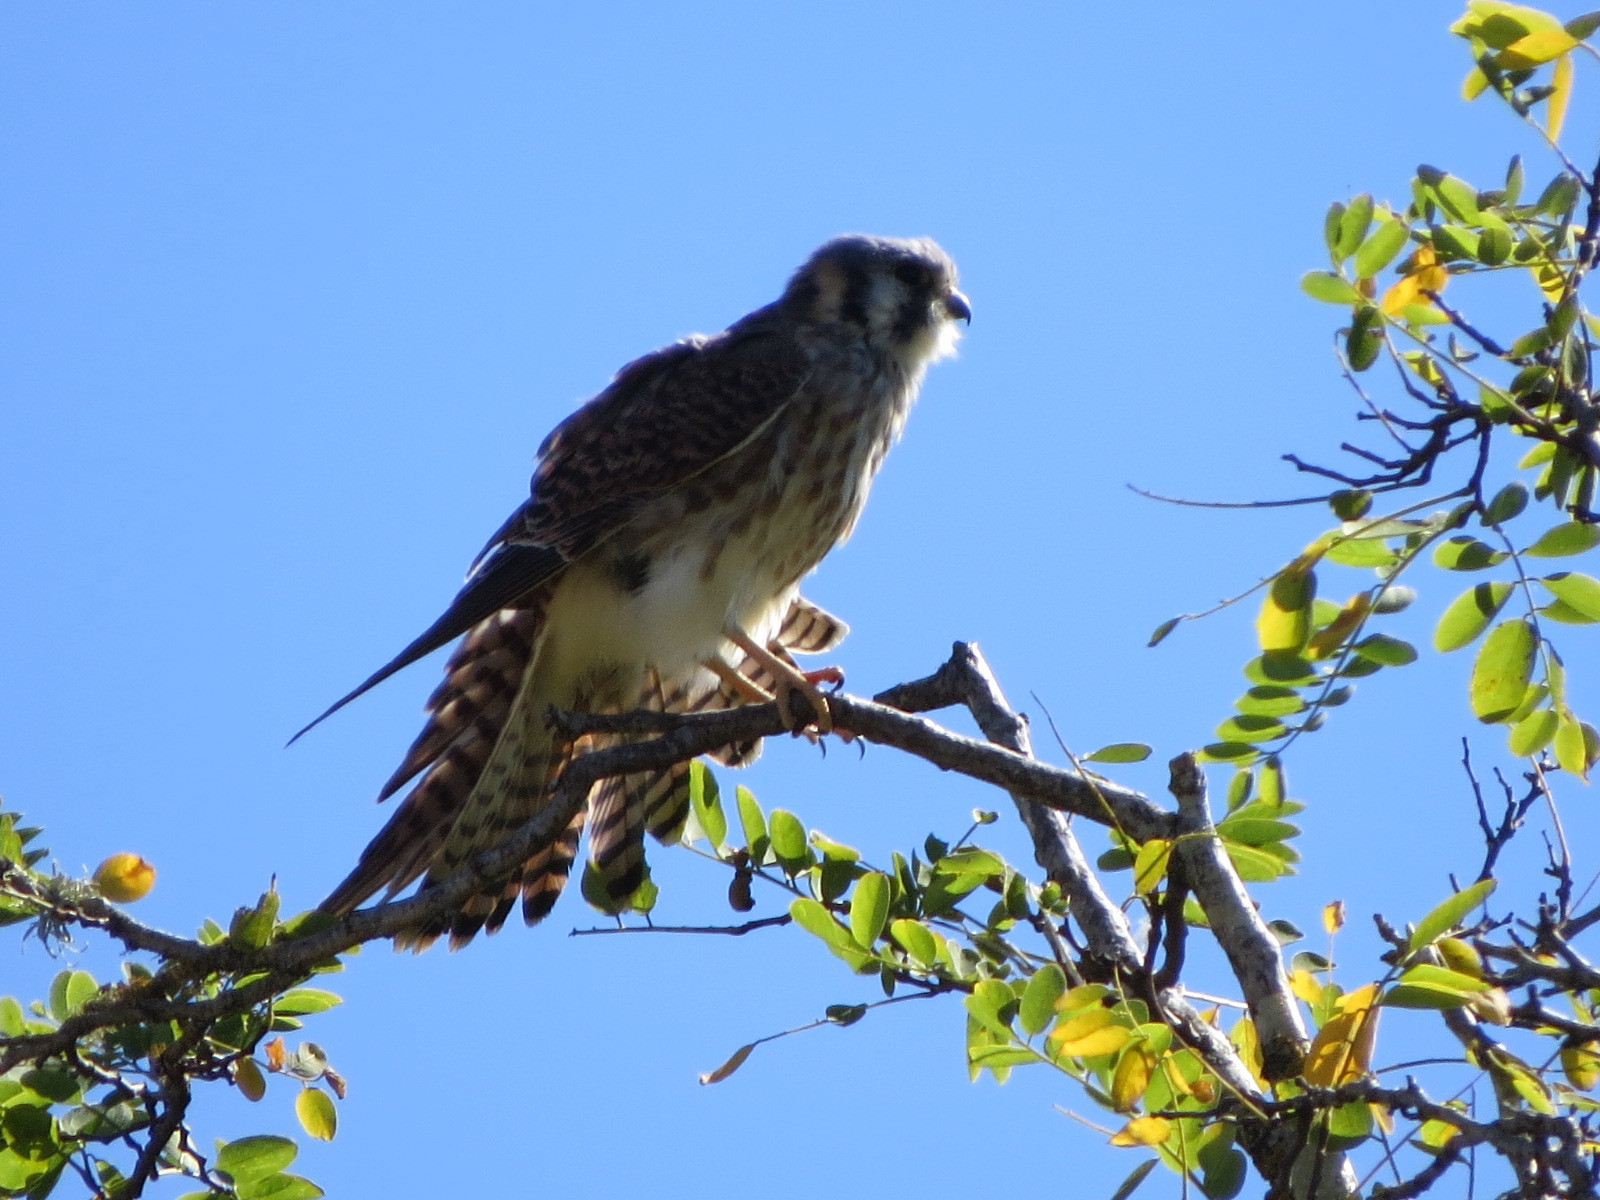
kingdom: Animalia
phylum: Chordata
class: Aves
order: Falconiformes
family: Falconidae
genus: Falco
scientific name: Falco sparverius
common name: American kestrel
